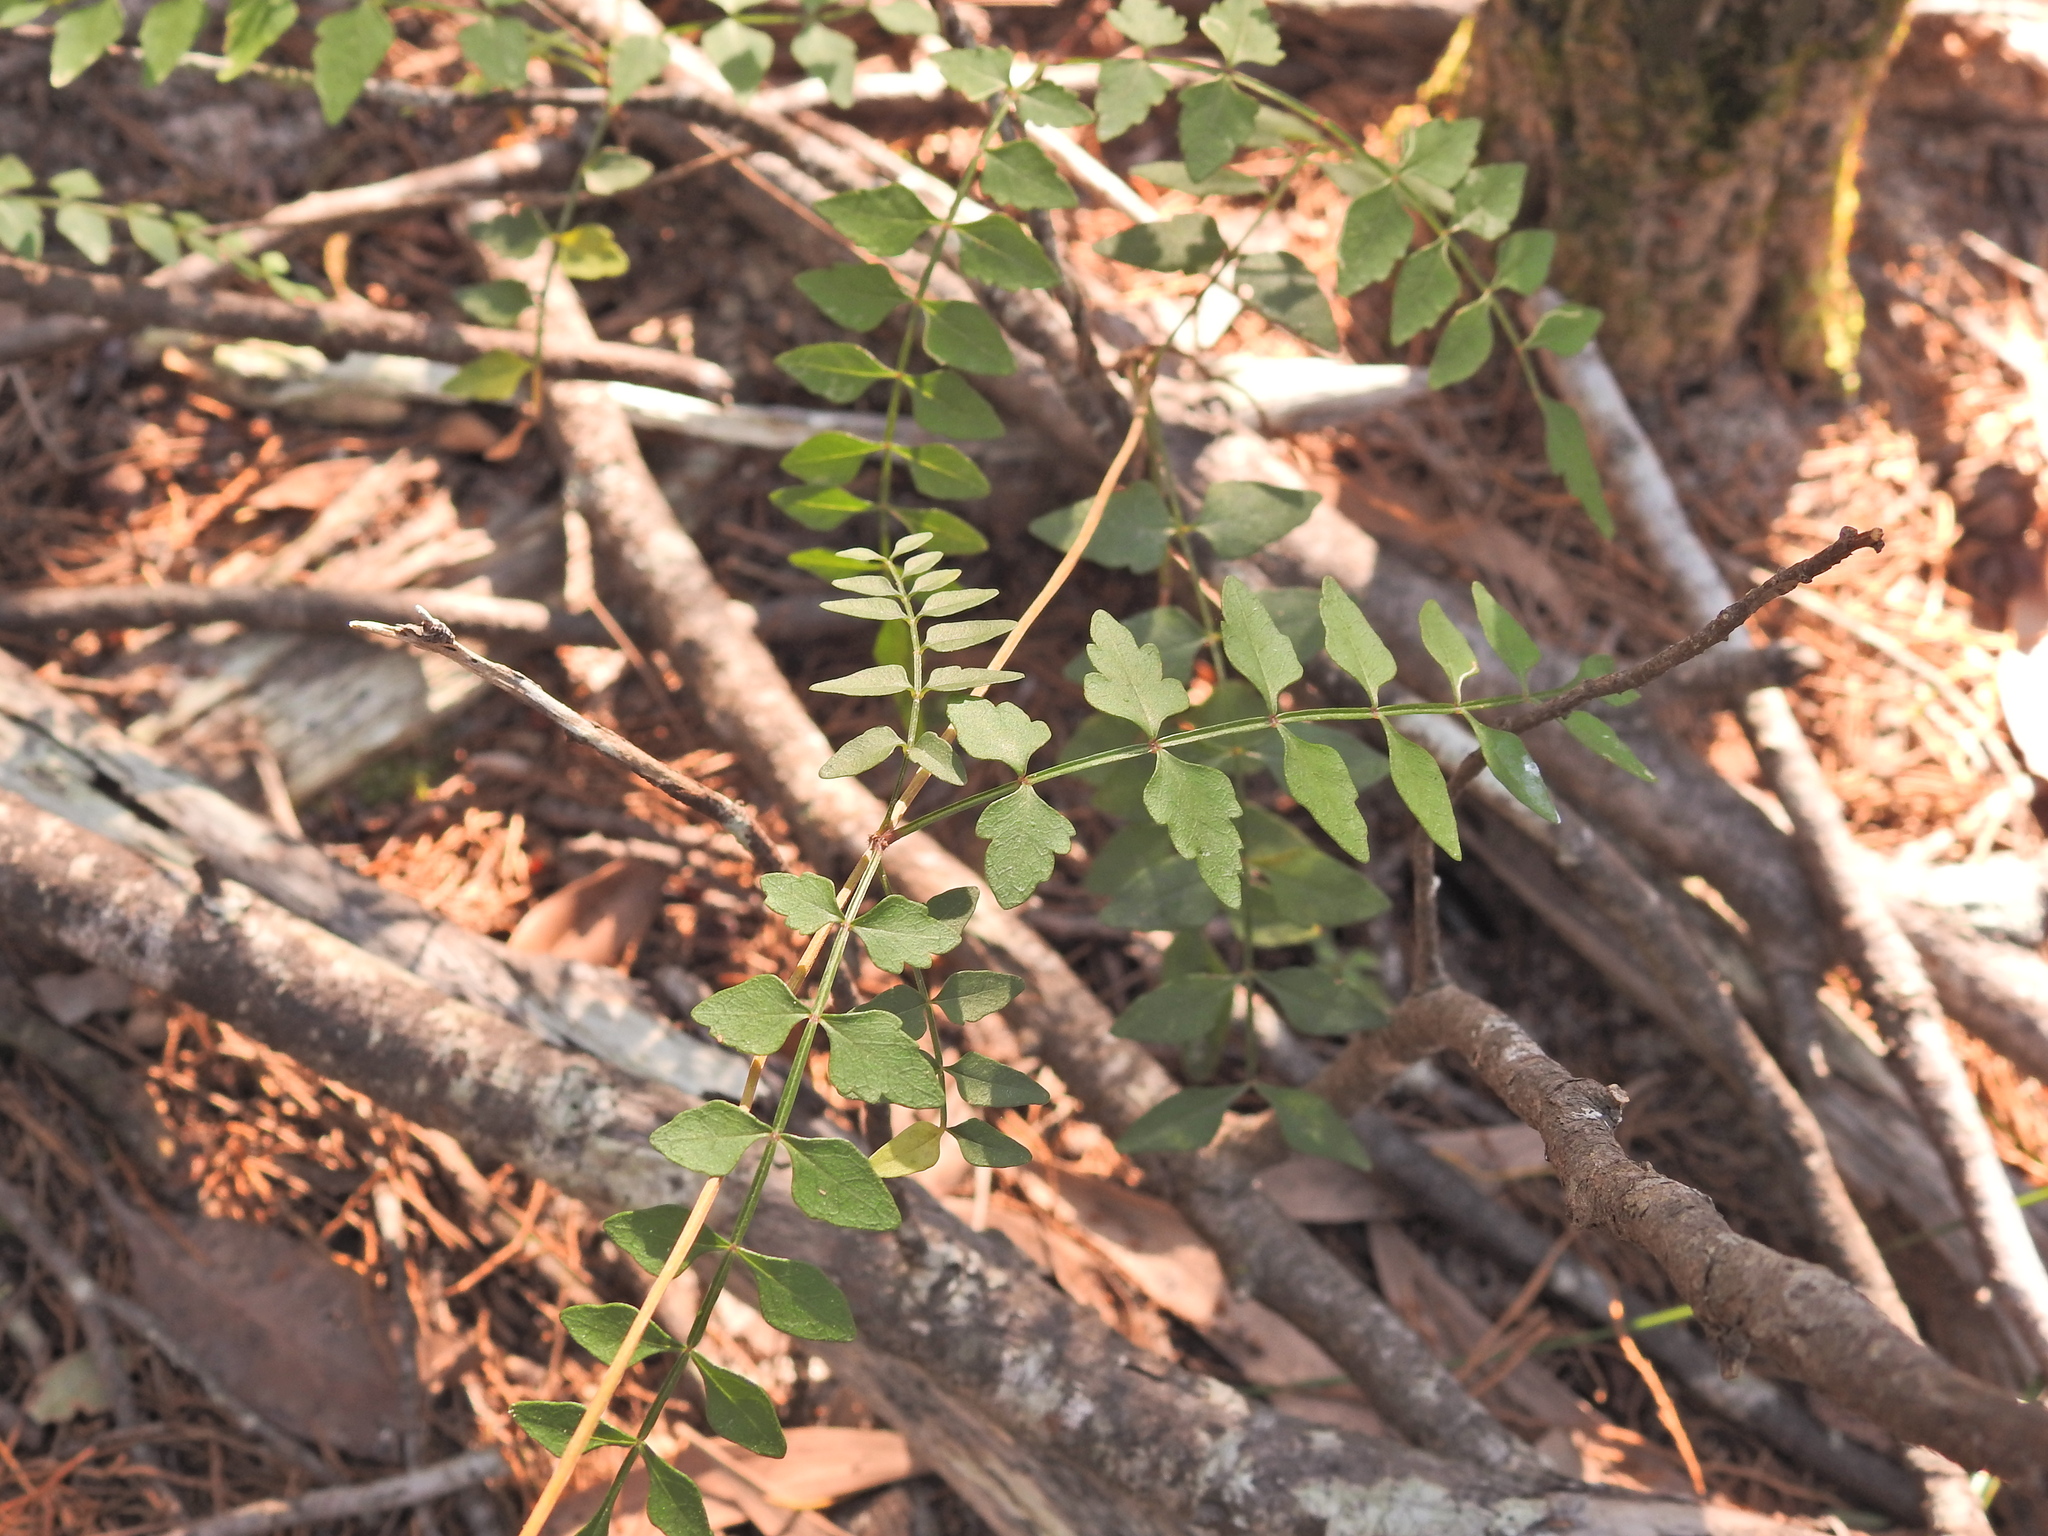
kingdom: Plantae
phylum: Tracheophyta
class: Magnoliopsida
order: Lamiales
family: Bignoniaceae
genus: Pandorea
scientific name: Pandorea pandorana
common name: Wonga-wonga-vine
